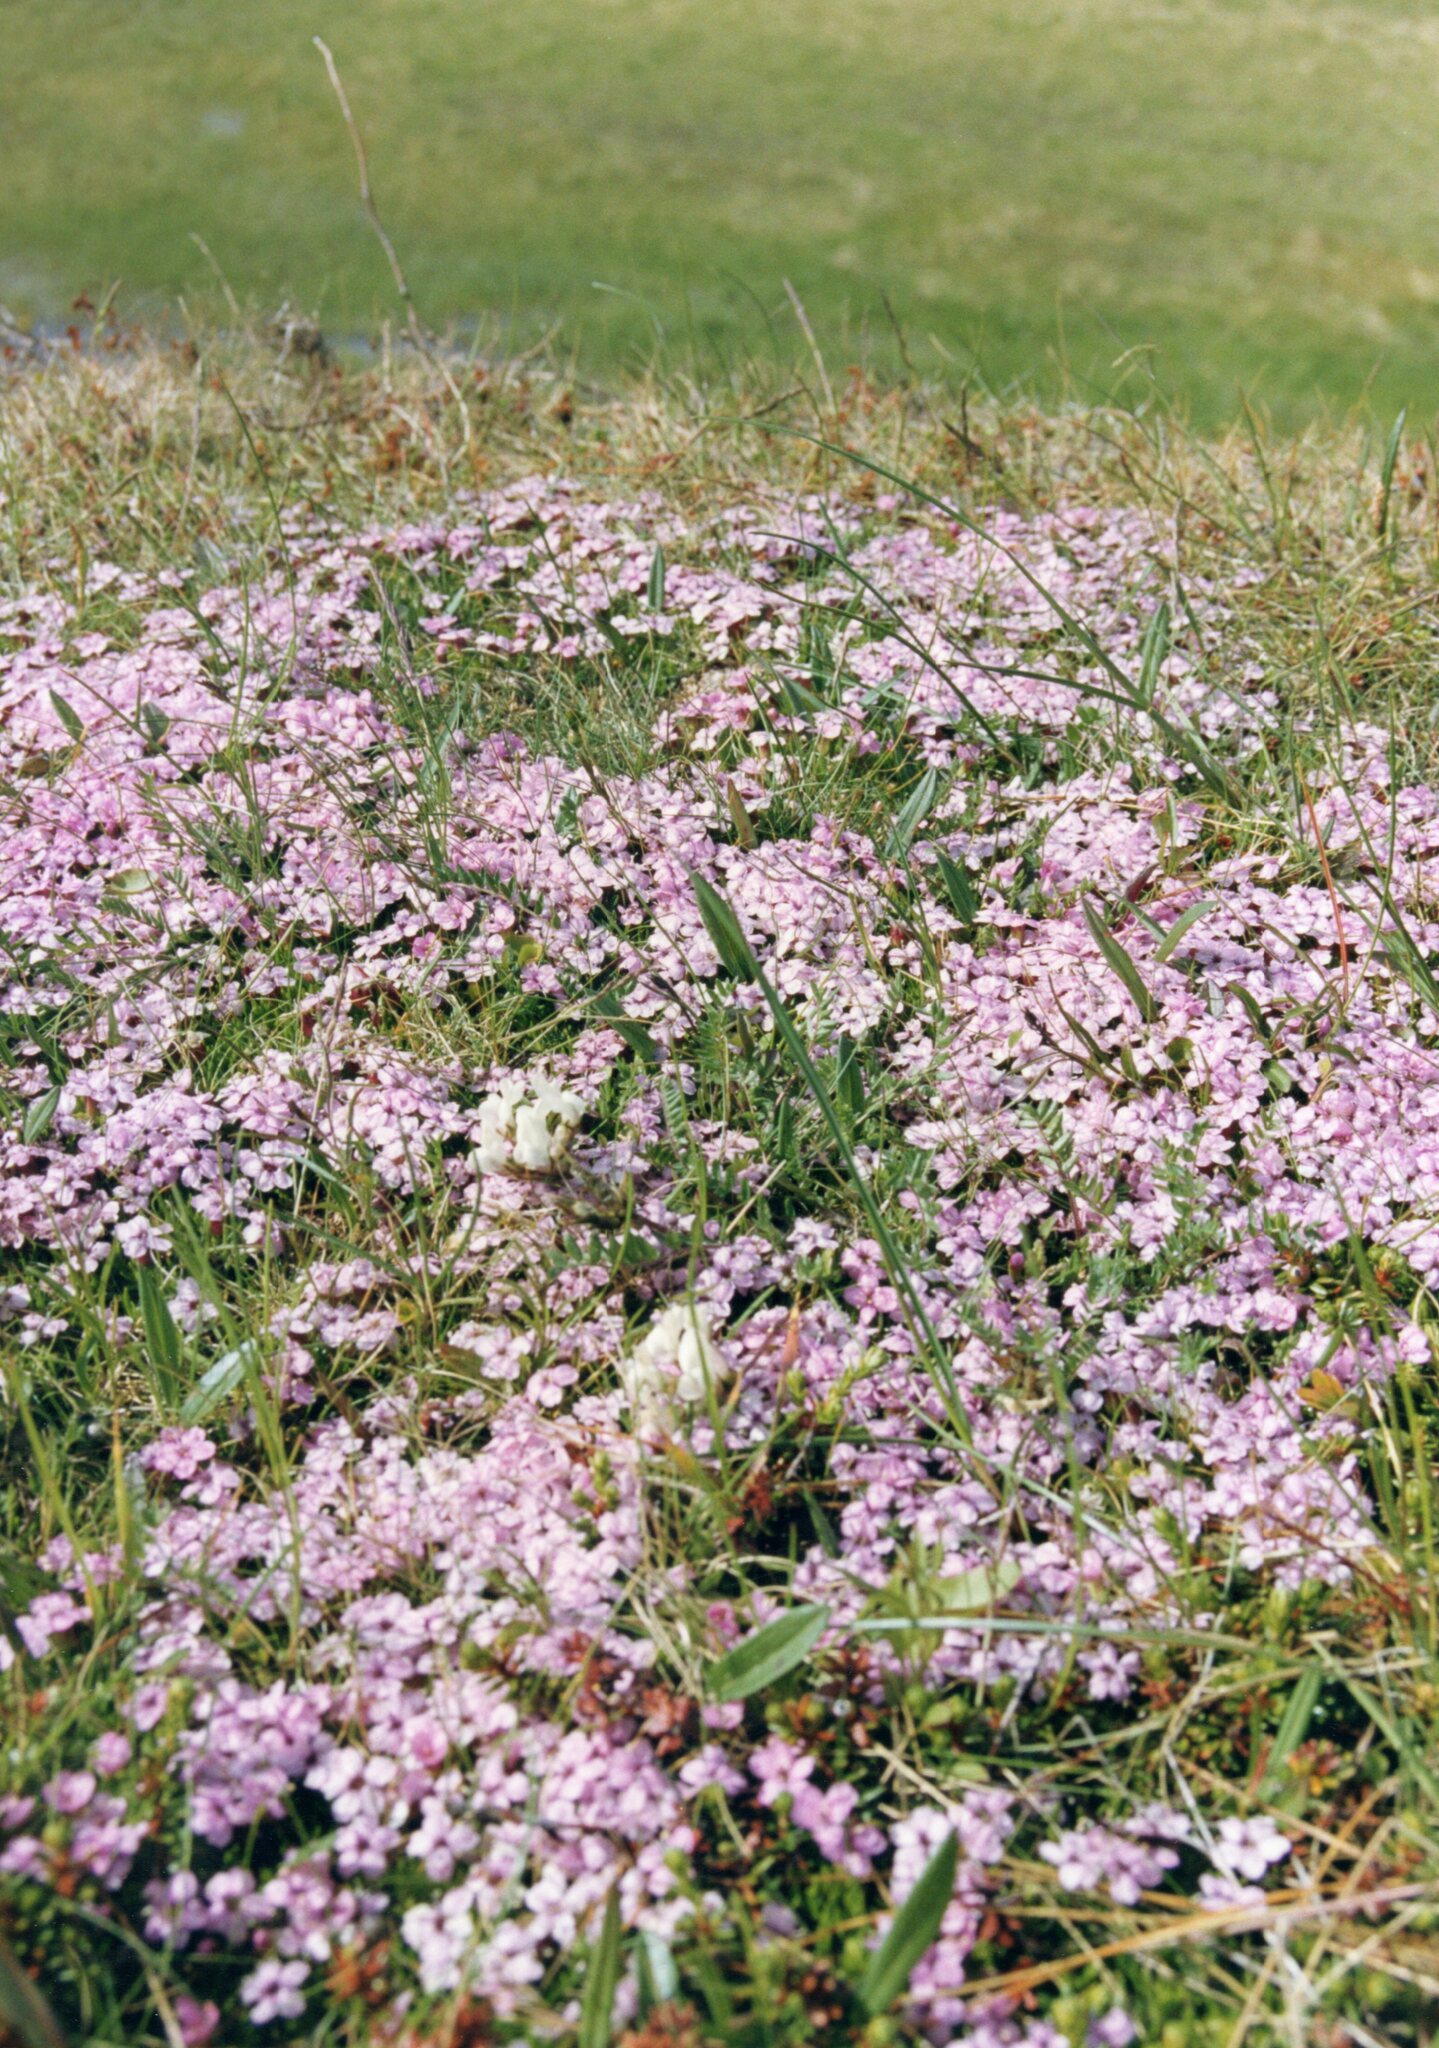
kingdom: Plantae
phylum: Tracheophyta
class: Magnoliopsida
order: Caryophyllales
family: Caryophyllaceae
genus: Silene
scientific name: Silene acaulis
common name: Moss campion
